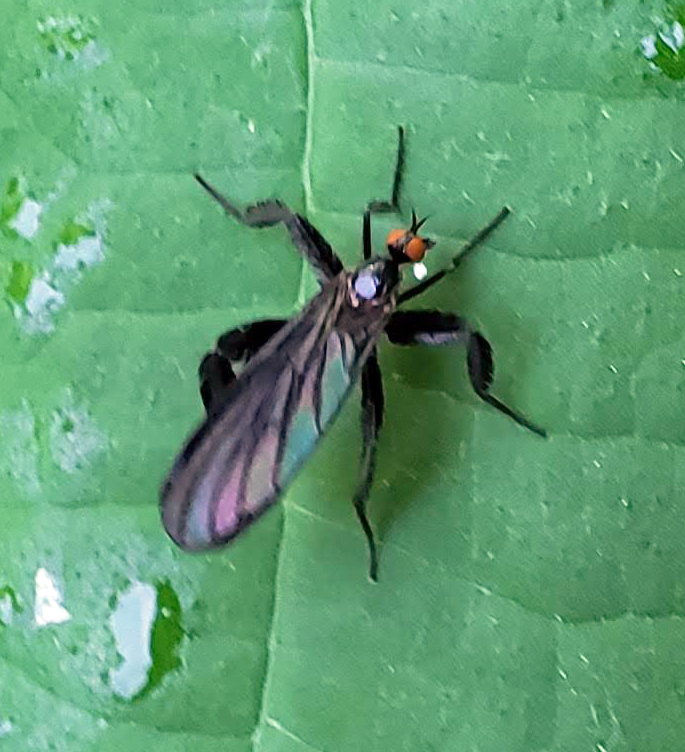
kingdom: Animalia
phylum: Arthropoda
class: Insecta
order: Diptera
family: Empididae
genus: Rhamphomyia
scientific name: Rhamphomyia longicauda
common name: Long-tailed dance fly
